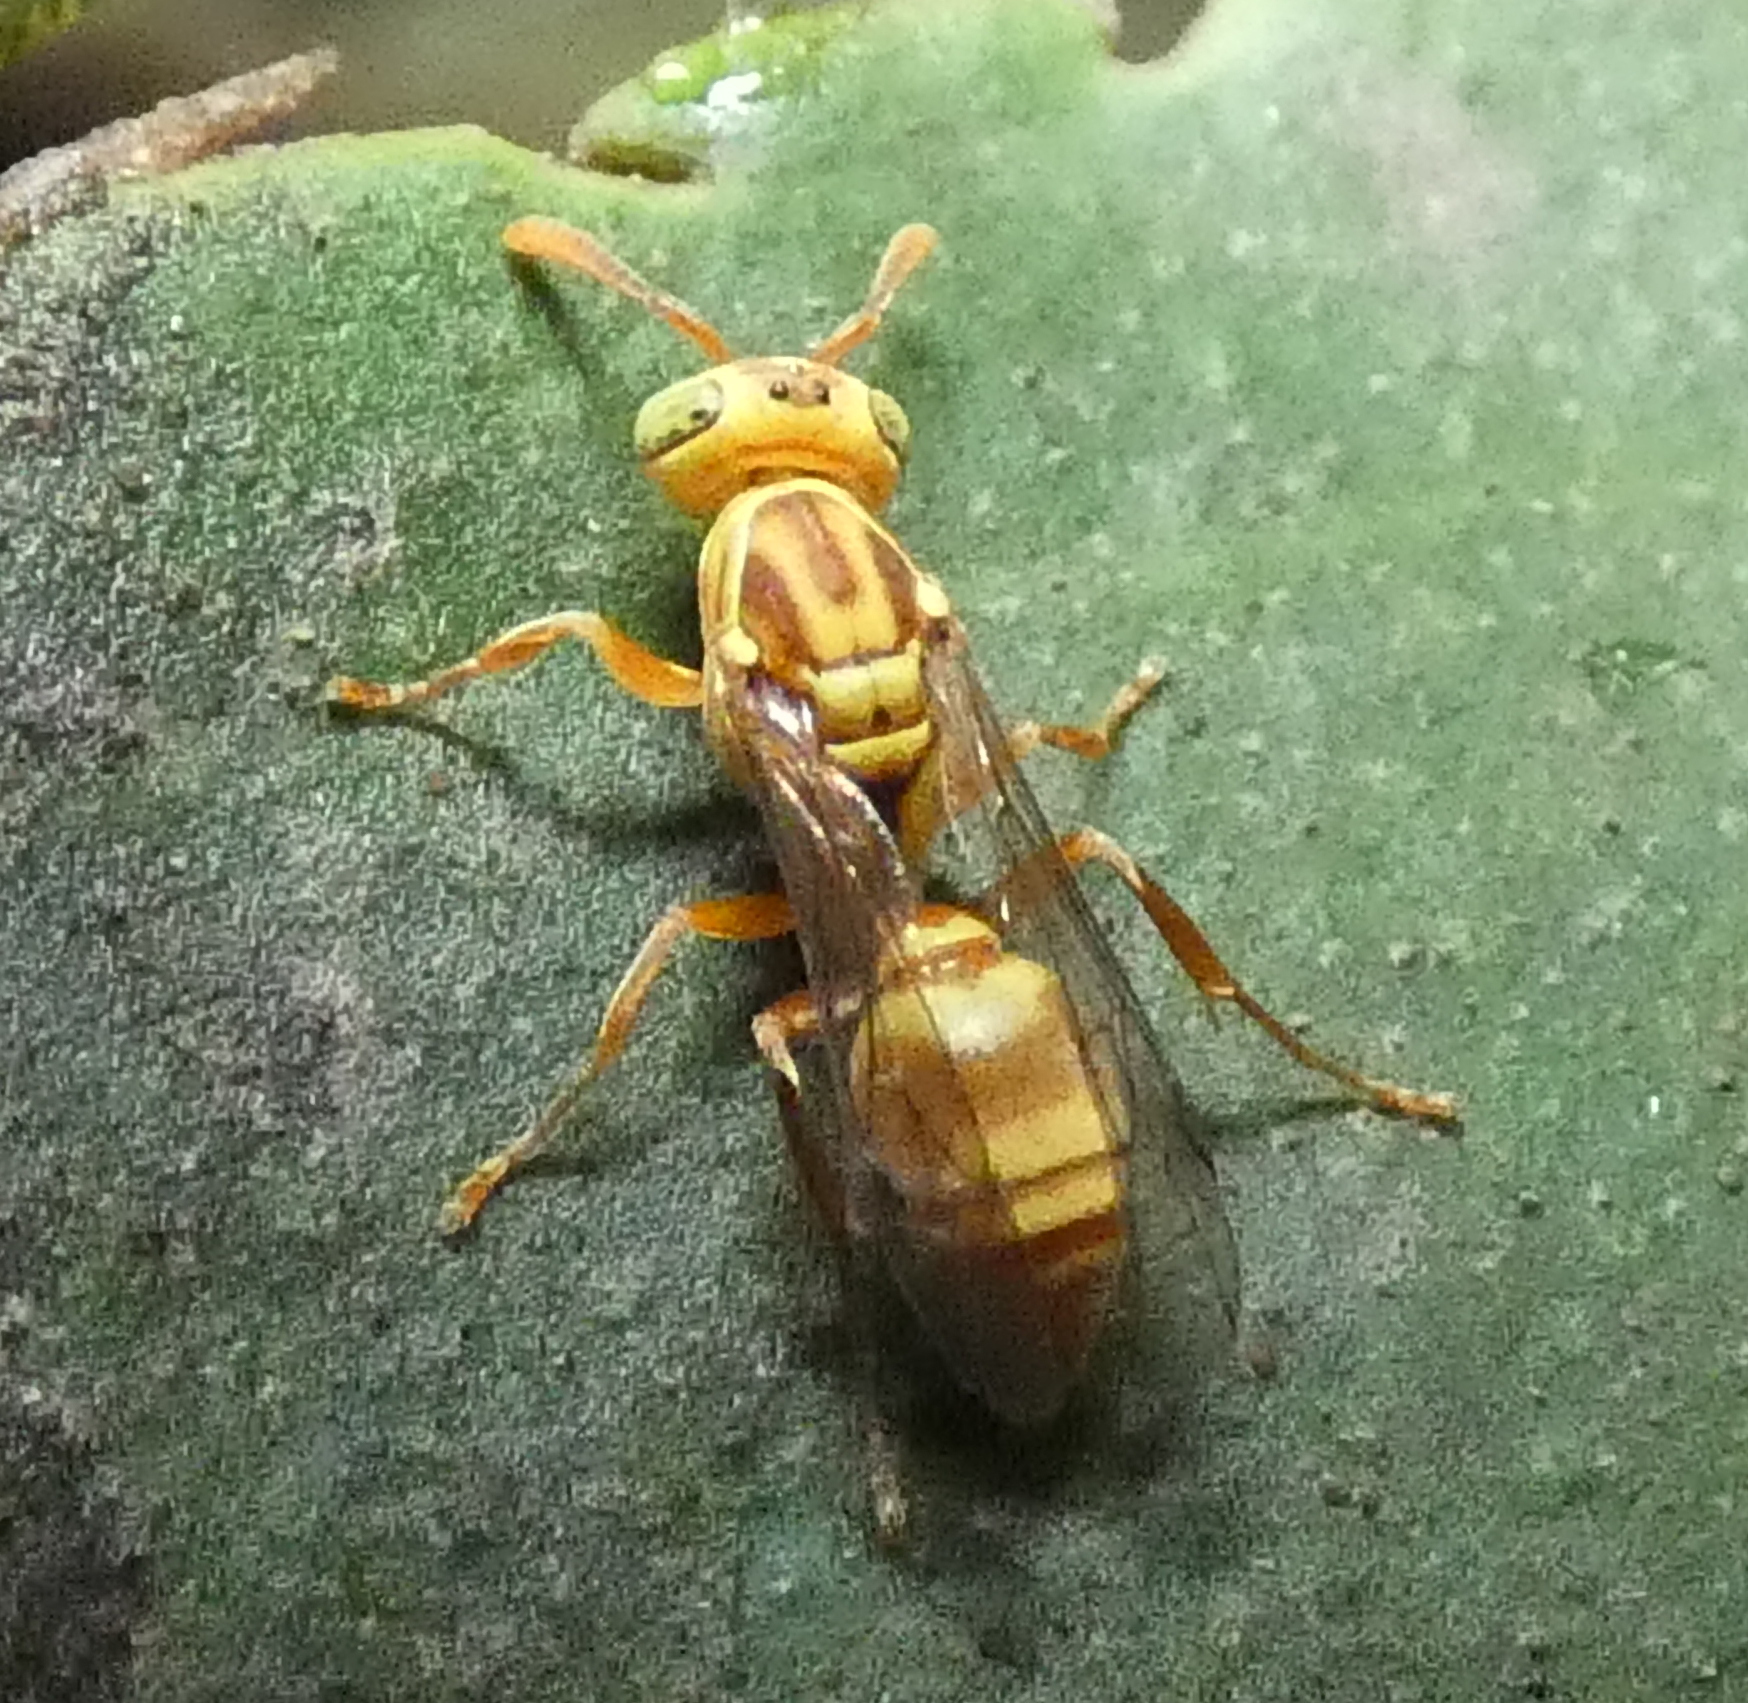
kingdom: Animalia
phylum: Arthropoda
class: Insecta
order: Hymenoptera
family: Vespidae
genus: Protopolybia
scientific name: Protopolybia potiguara
